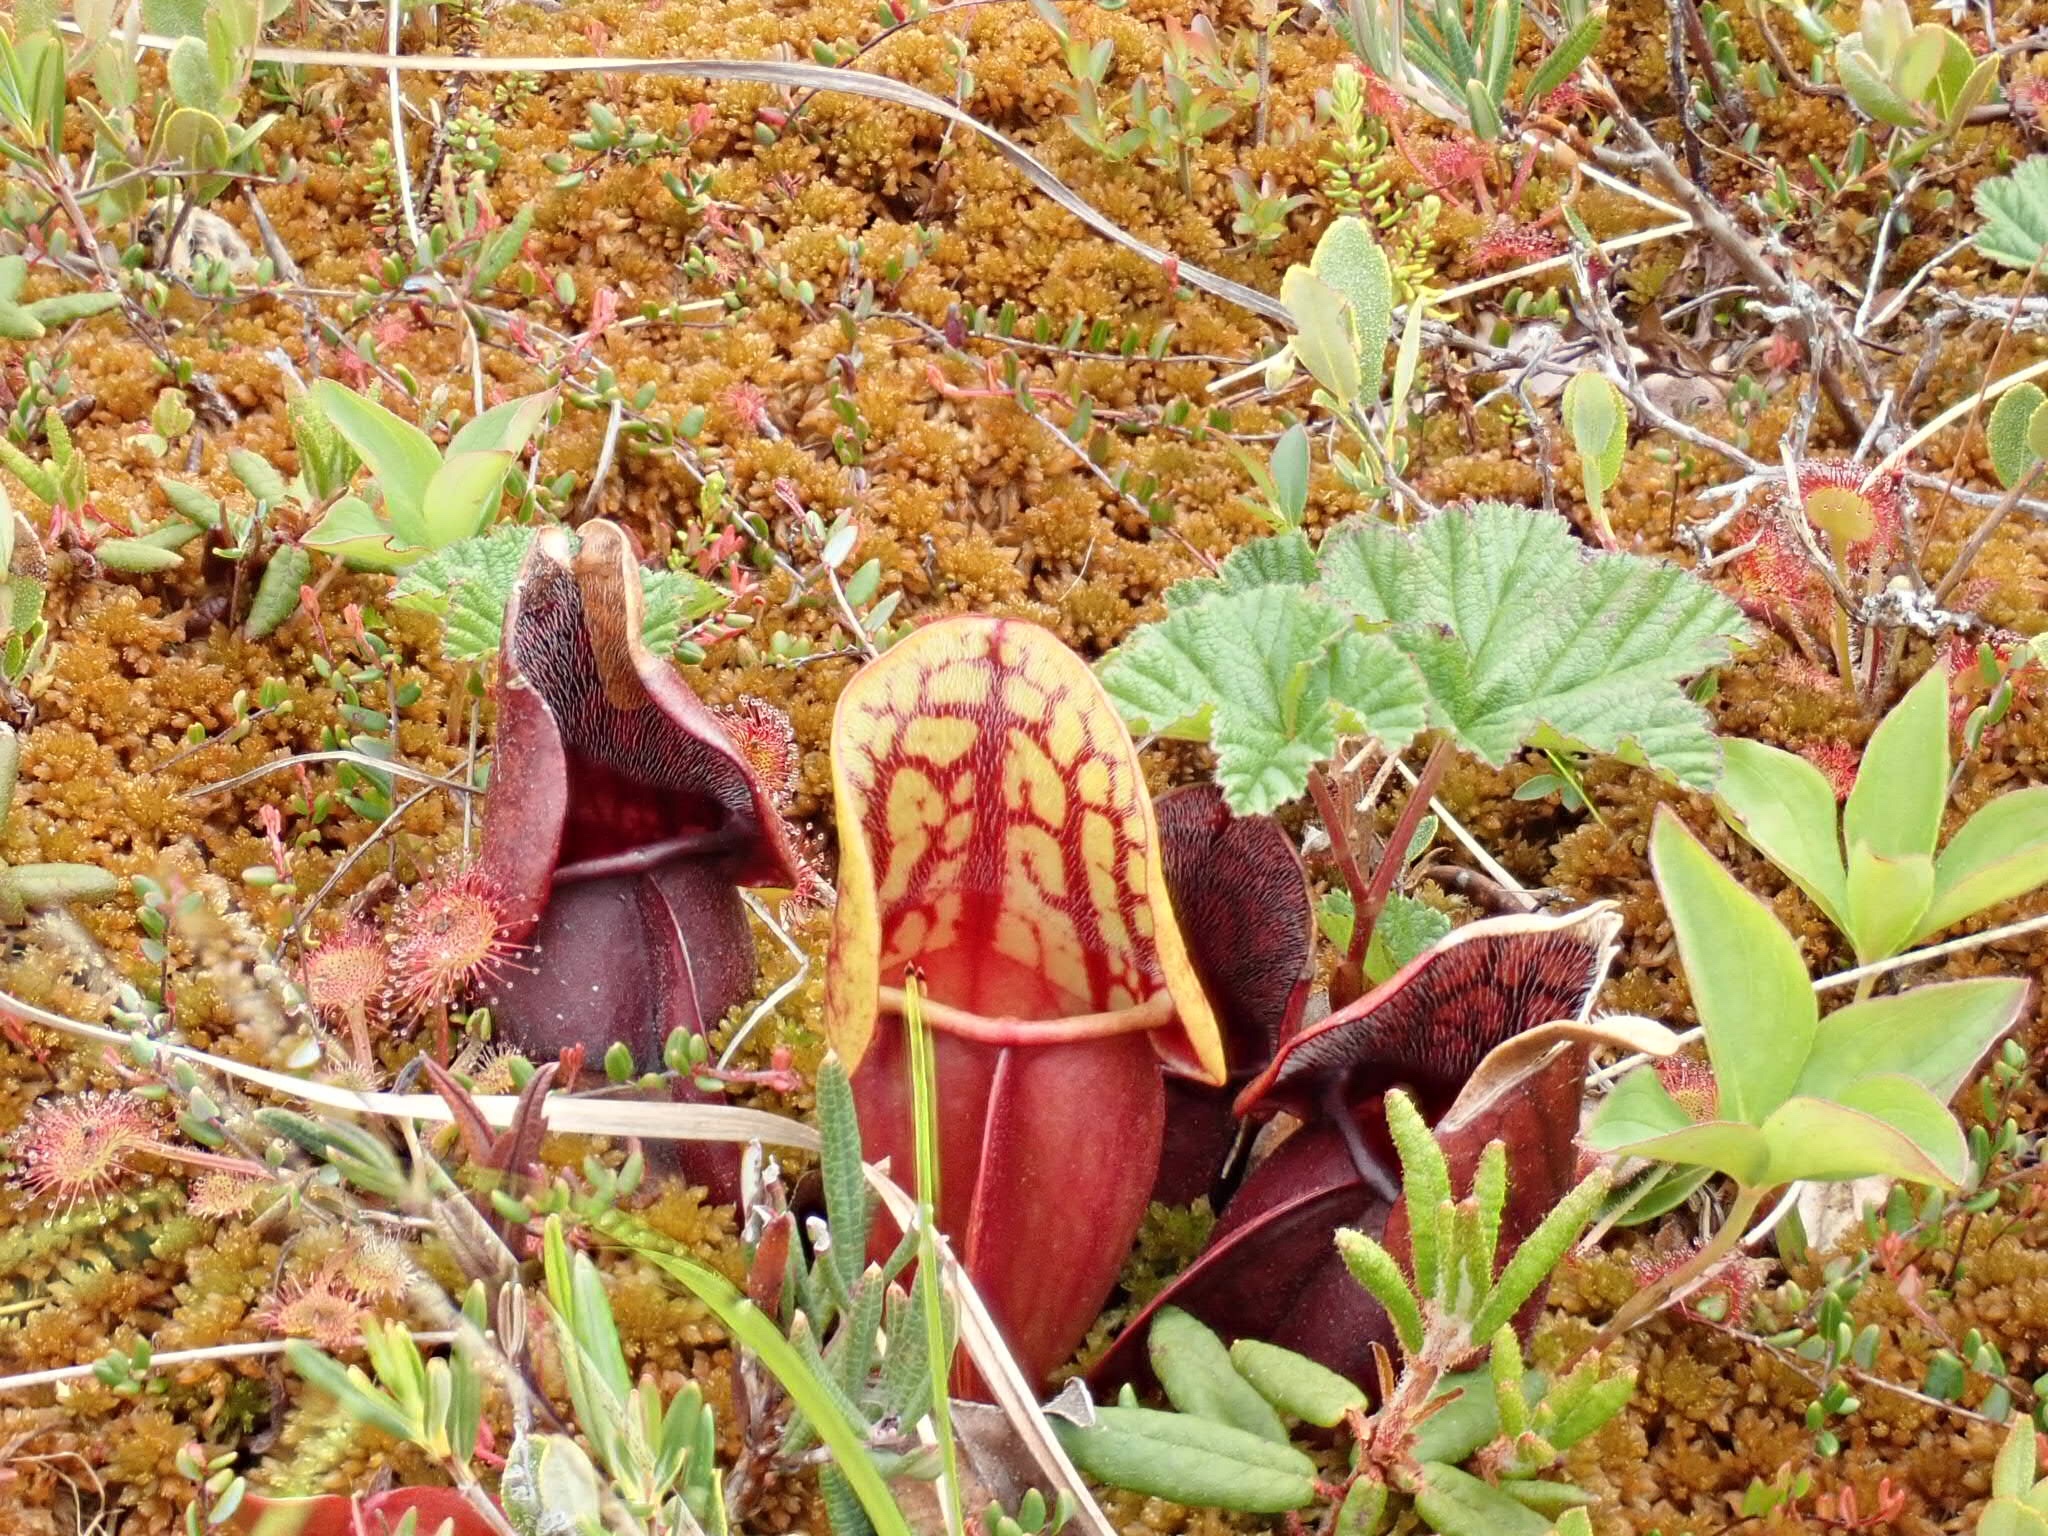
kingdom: Plantae
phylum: Tracheophyta
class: Magnoliopsida
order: Ericales
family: Sarraceniaceae
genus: Sarracenia
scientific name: Sarracenia purpurea
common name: Pitcherplant
